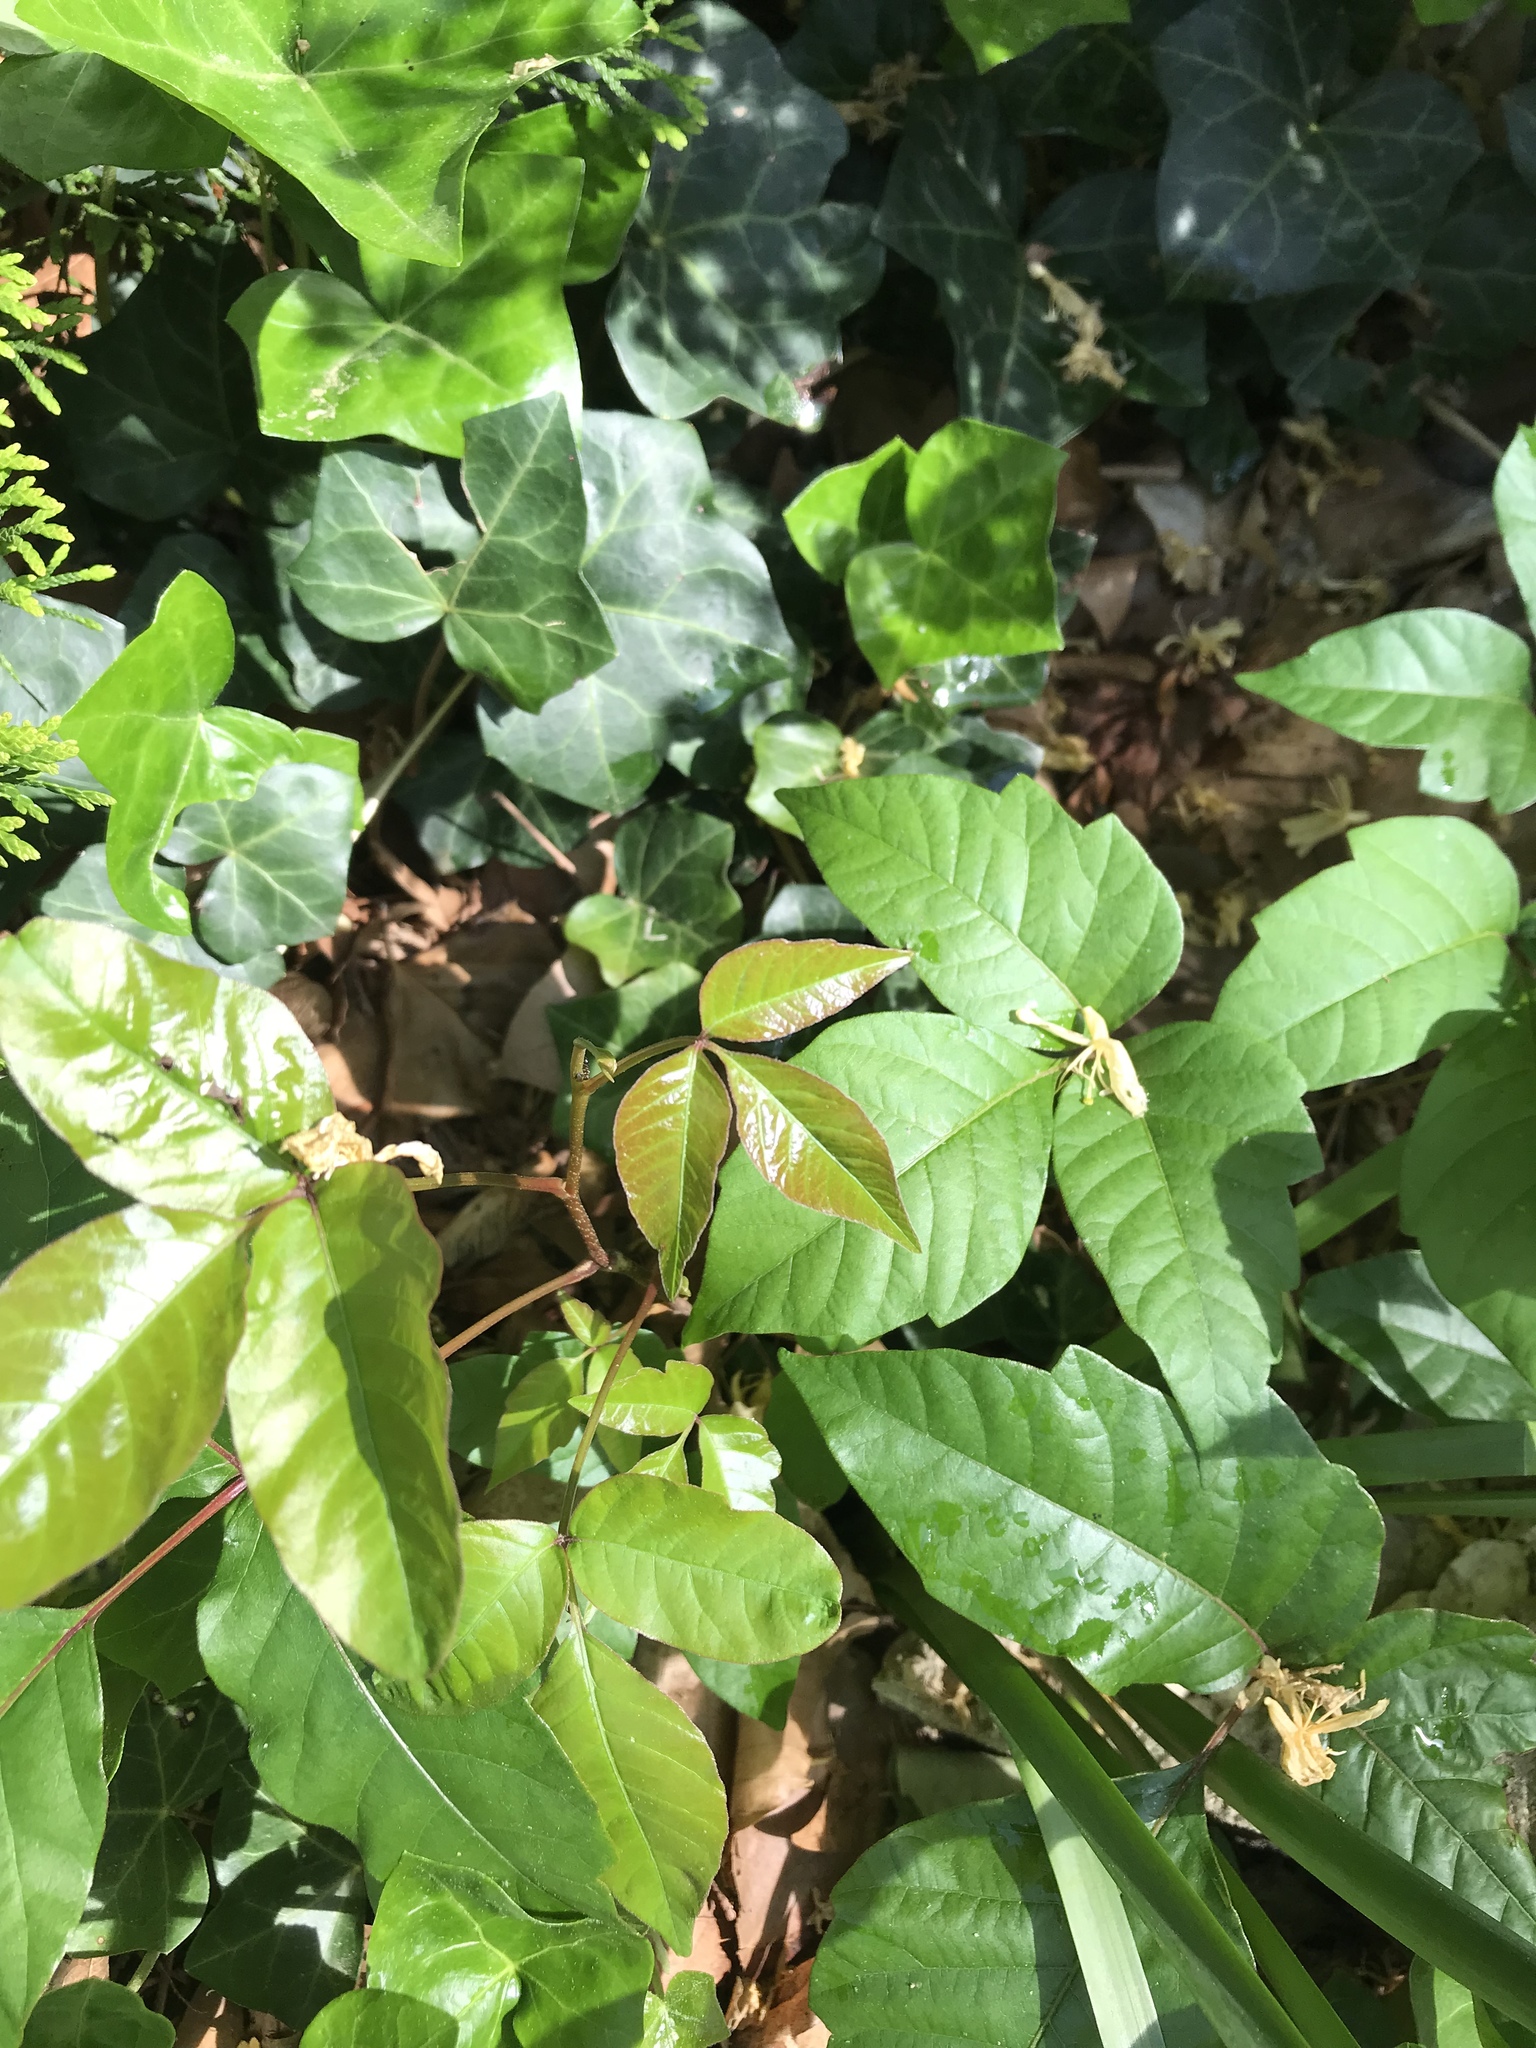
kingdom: Plantae
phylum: Tracheophyta
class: Magnoliopsida
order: Sapindales
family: Anacardiaceae
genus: Toxicodendron
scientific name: Toxicodendron radicans
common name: Poison ivy
